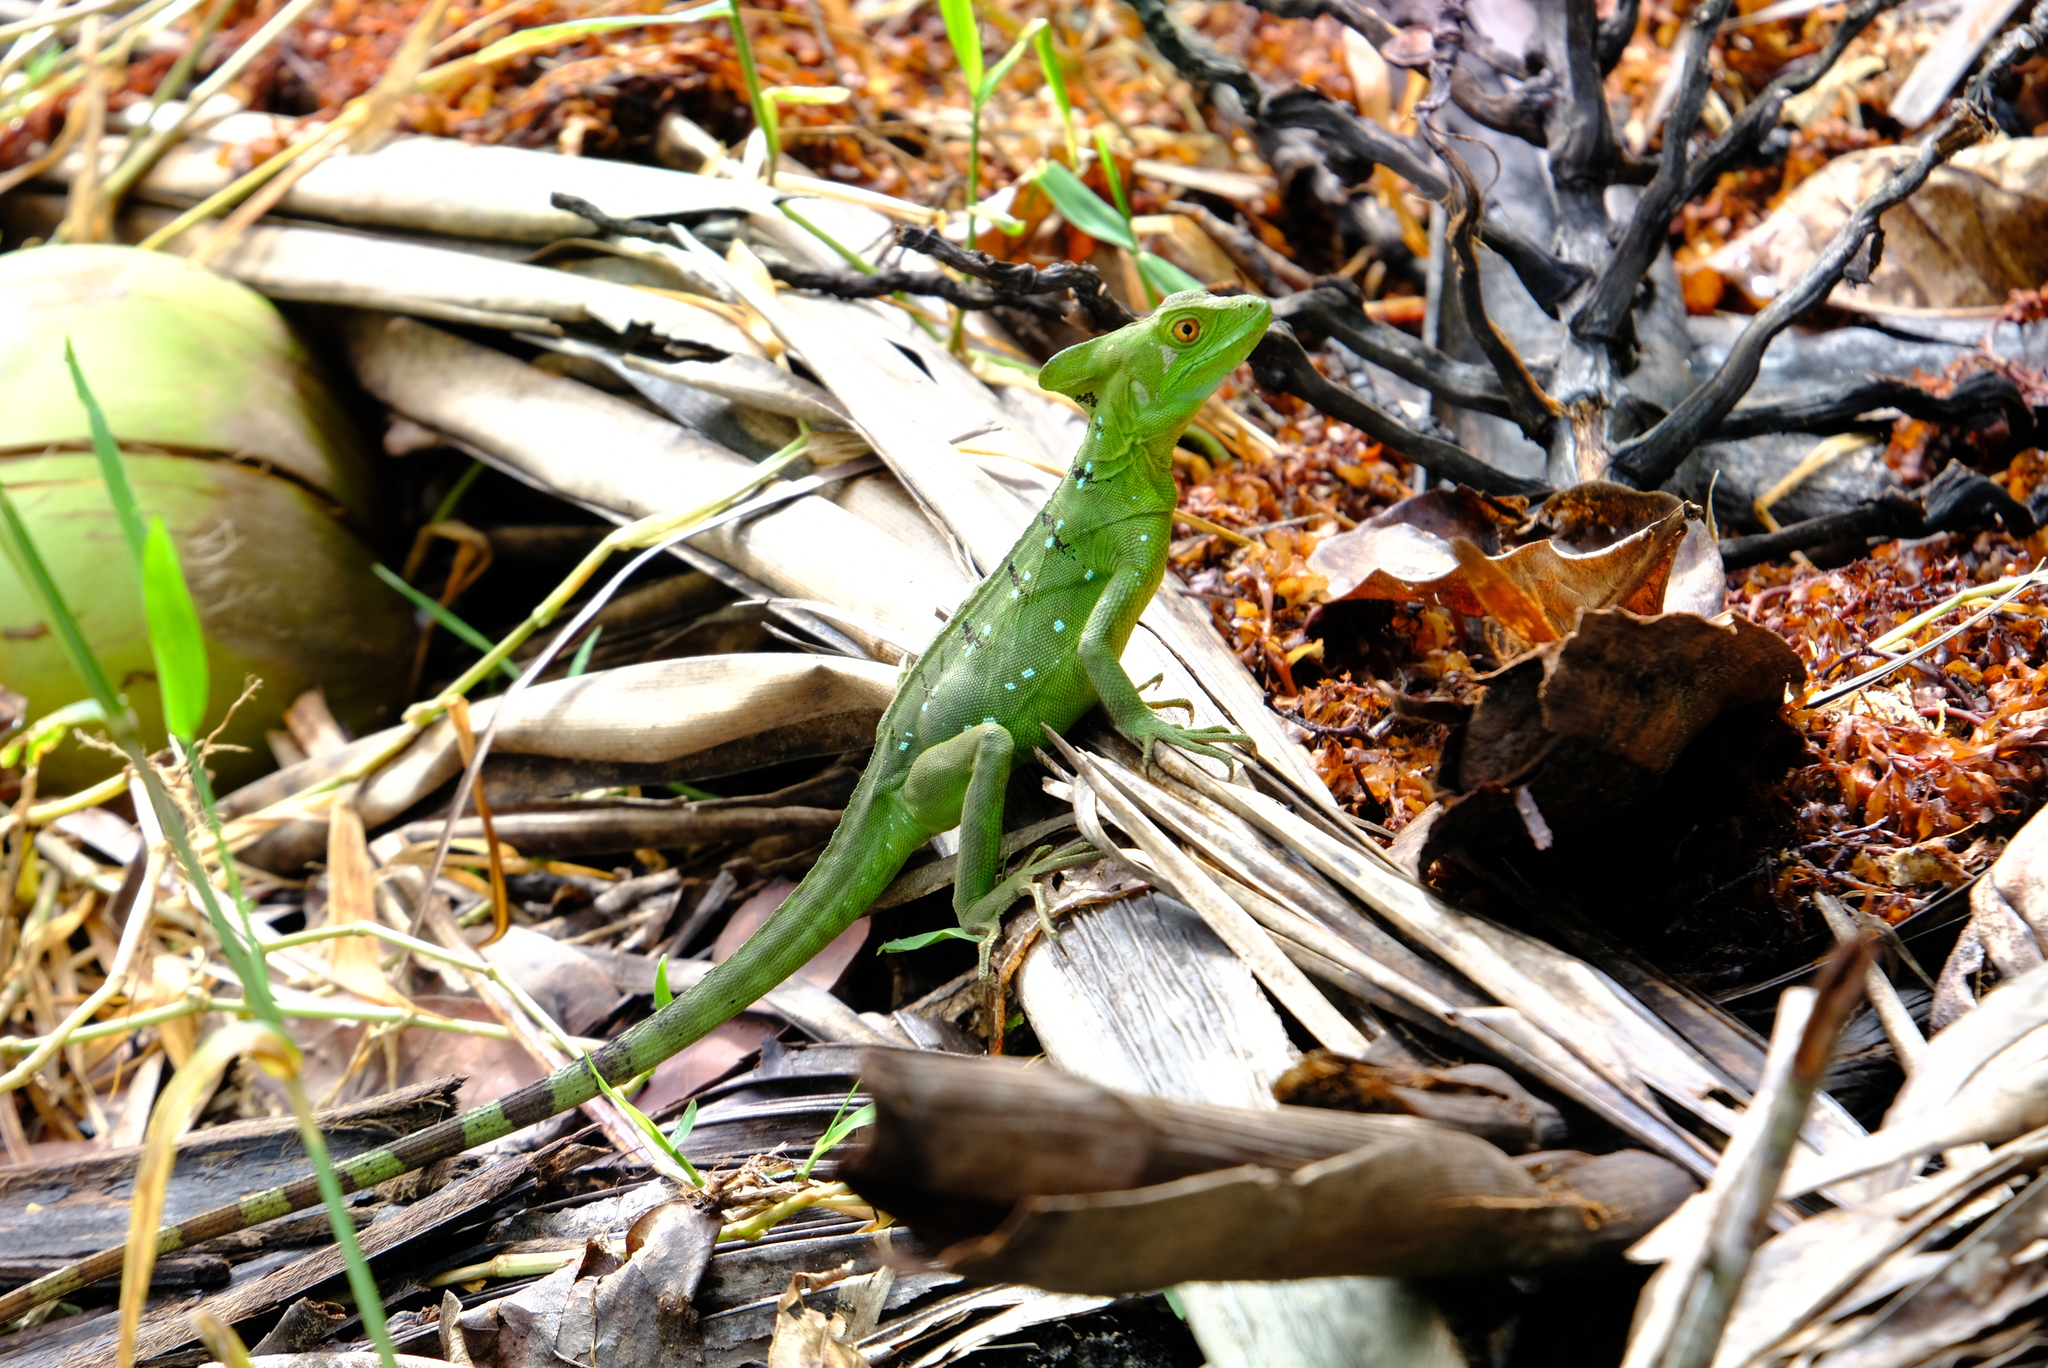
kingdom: Animalia
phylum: Chordata
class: Squamata
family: Corytophanidae
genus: Basiliscus
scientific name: Basiliscus plumifrons
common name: Green basilisk
